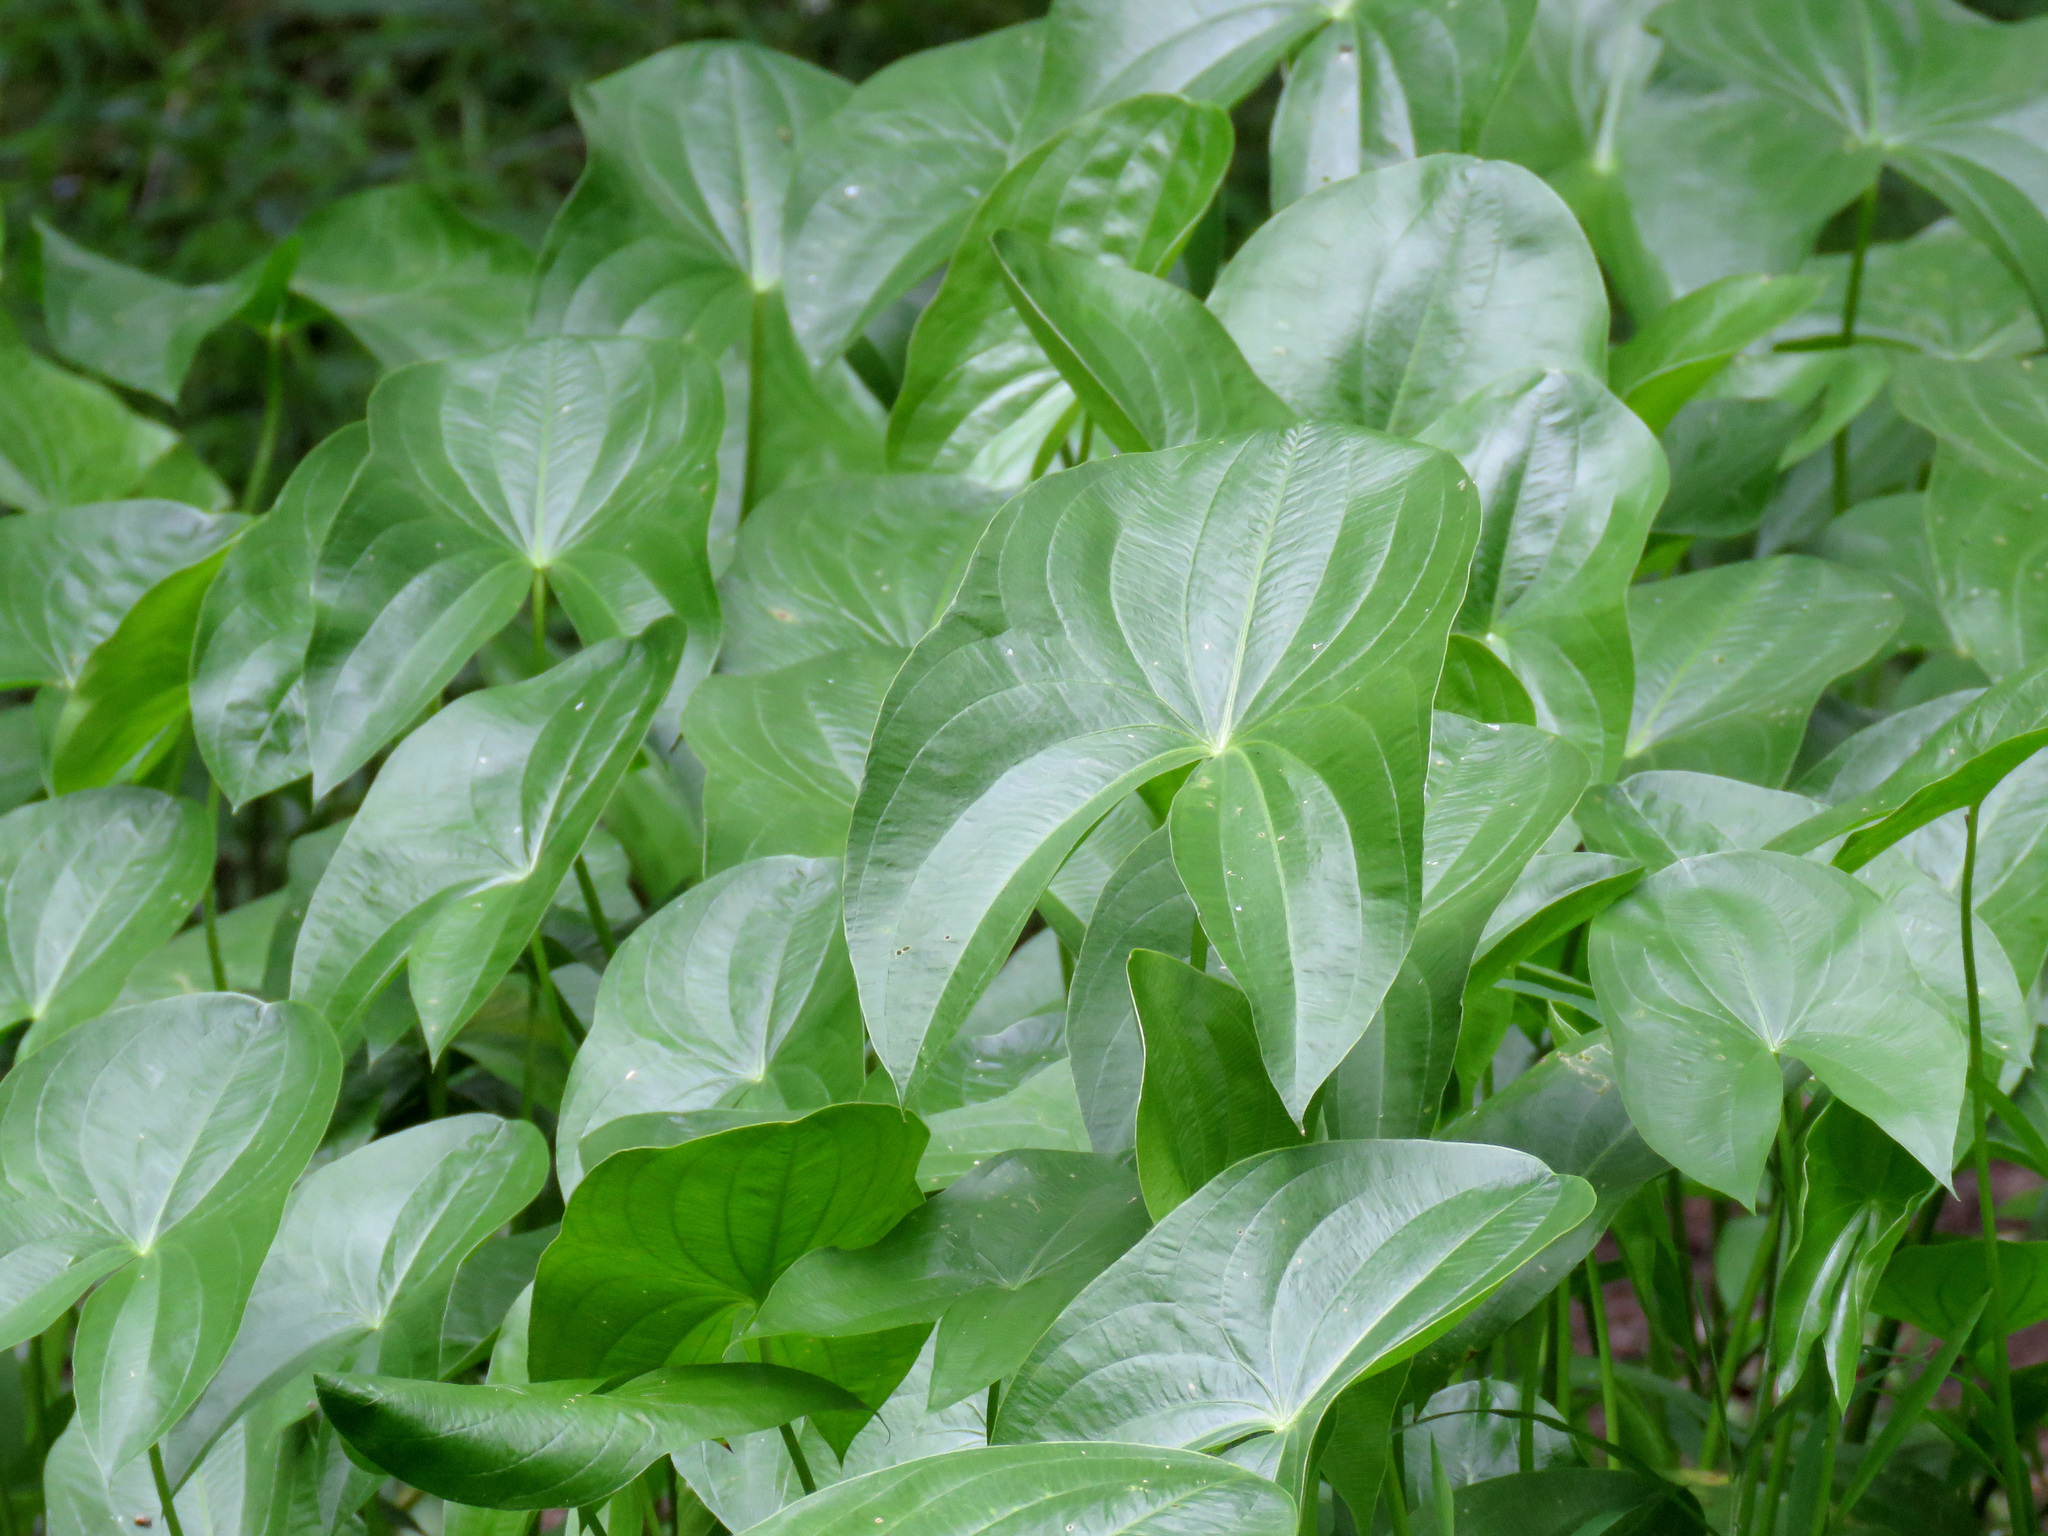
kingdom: Plantae
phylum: Tracheophyta
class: Liliopsida
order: Alismatales
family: Alismataceae
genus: Sagittaria
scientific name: Sagittaria latifolia
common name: Duck-potato
